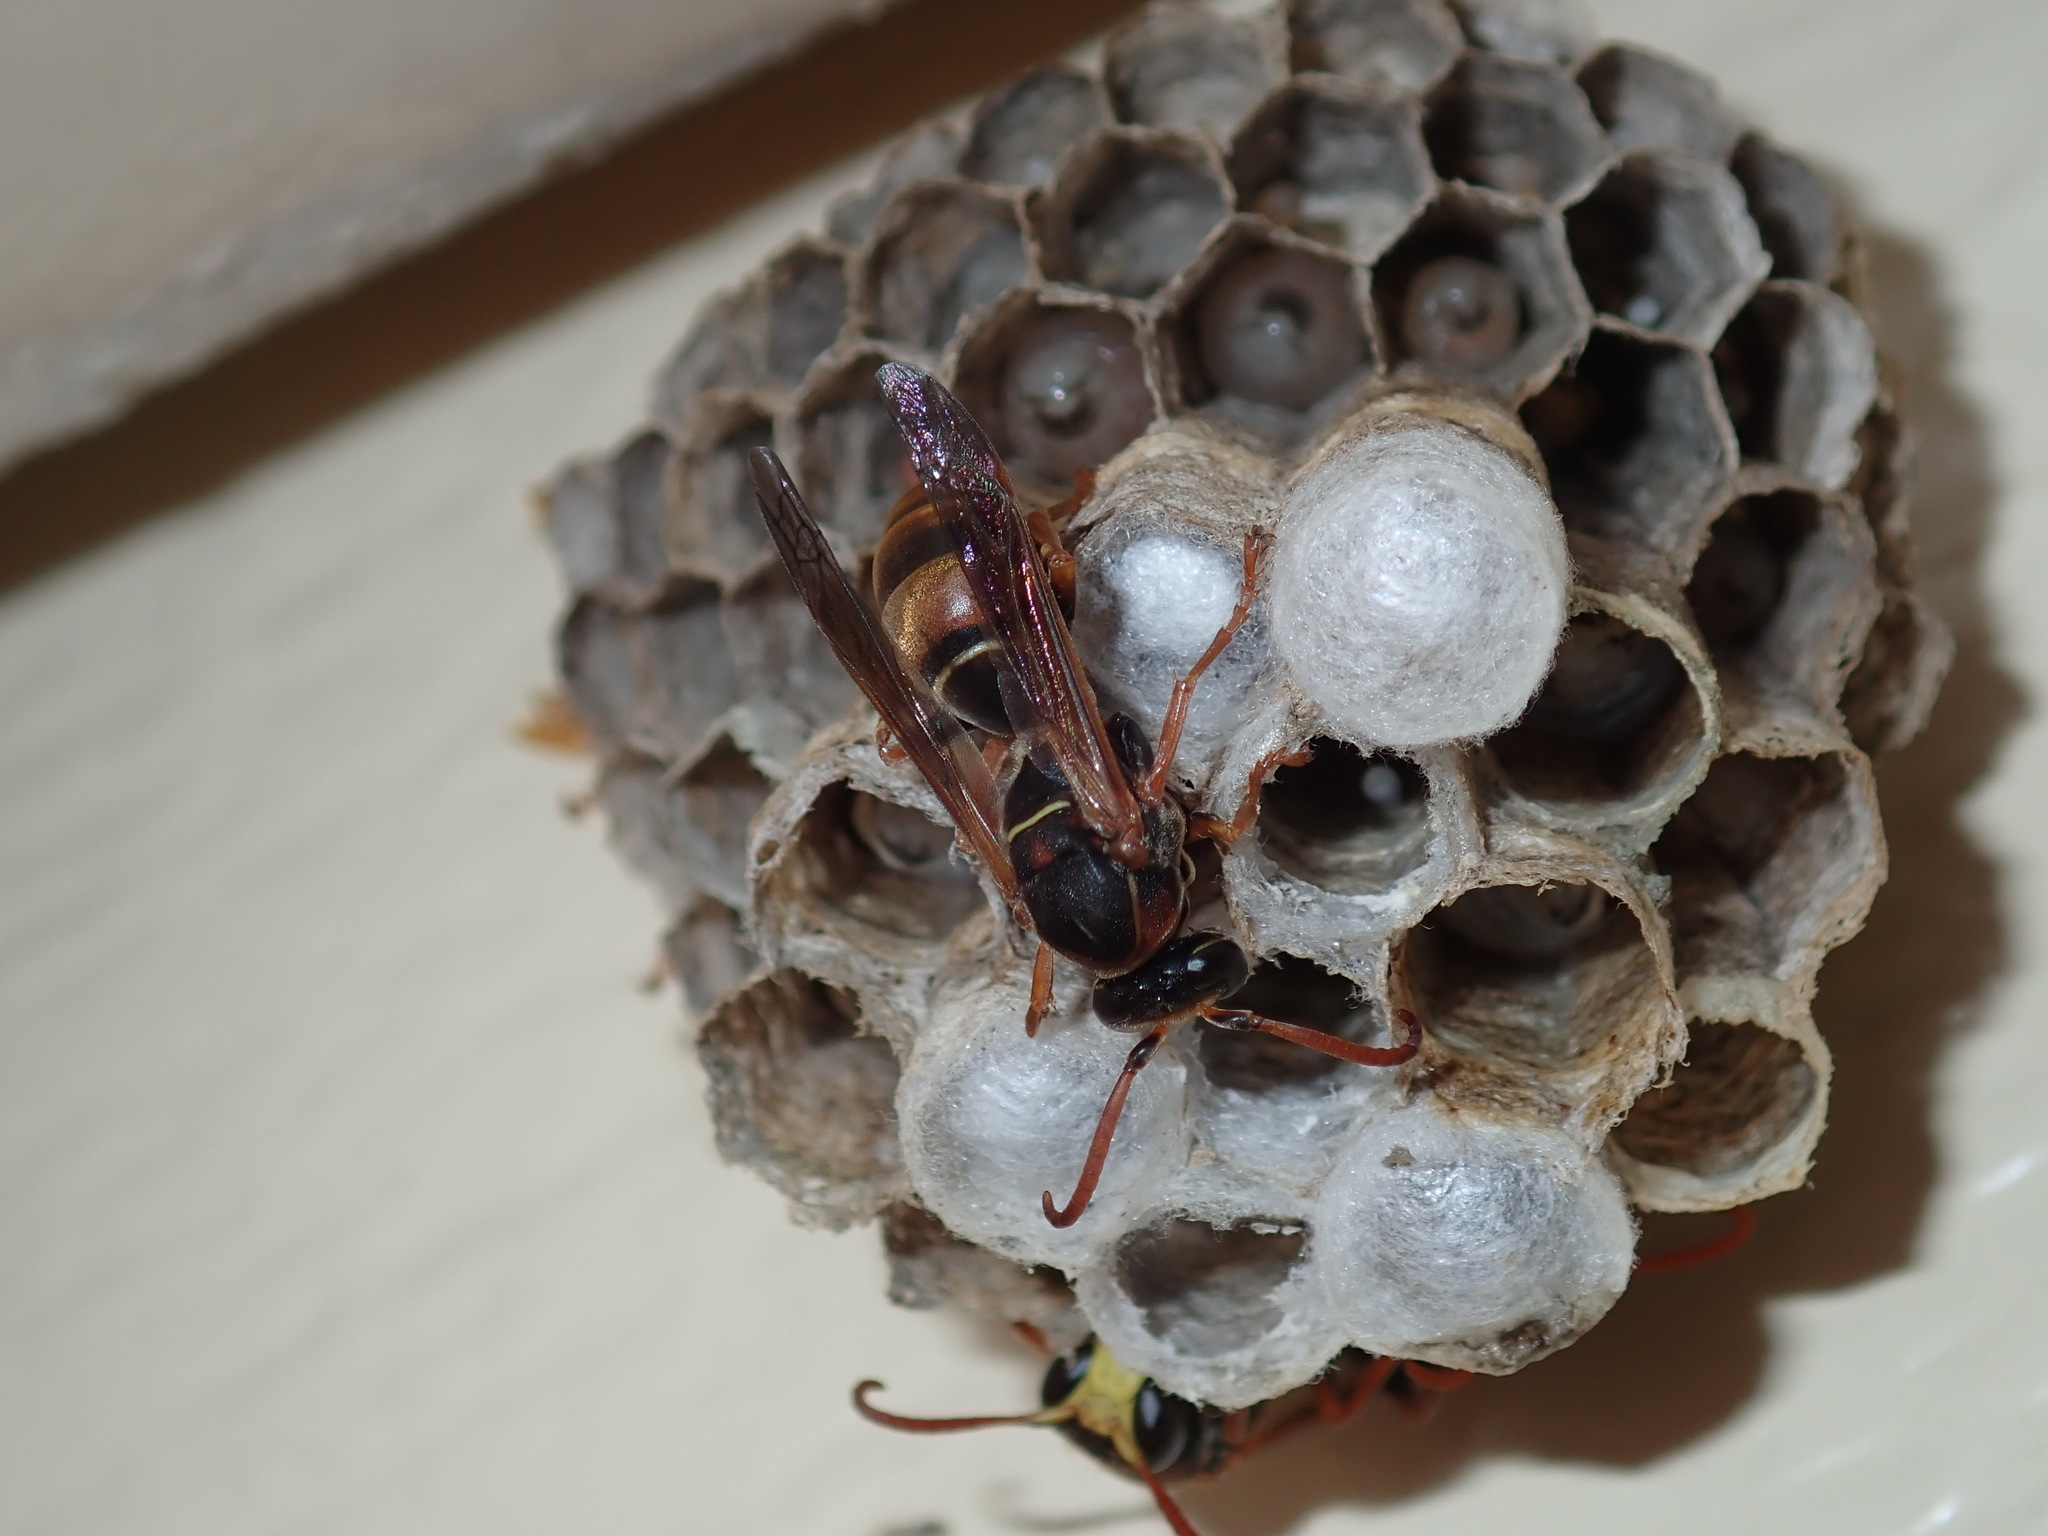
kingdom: Animalia
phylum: Arthropoda
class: Insecta
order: Hymenoptera
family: Eumenidae
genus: Polistes
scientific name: Polistes humilis
